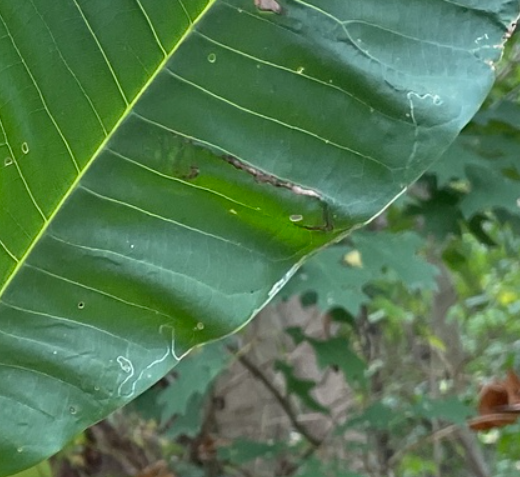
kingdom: Animalia
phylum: Arthropoda
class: Insecta
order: Lepidoptera
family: Gracillariidae
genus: Phyllocnistis
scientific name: Phyllocnistis liriodendronella
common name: Tulip tree leaf miner
